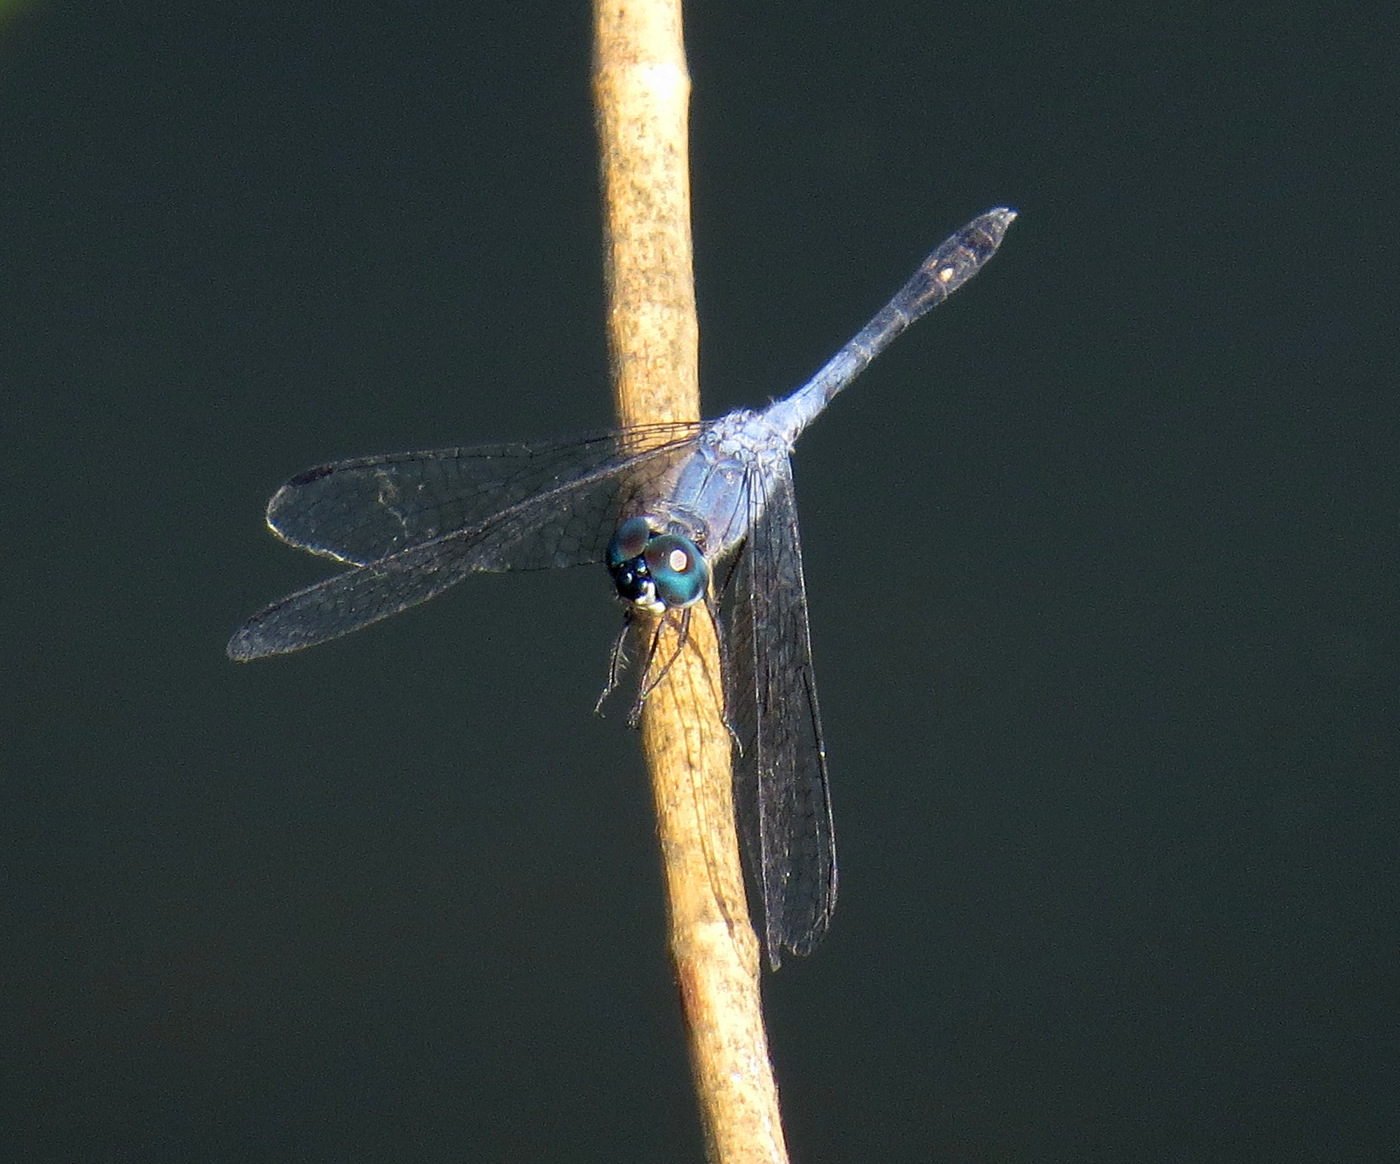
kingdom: Animalia
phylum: Arthropoda
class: Insecta
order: Odonata
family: Libellulidae
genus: Micrathyria
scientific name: Micrathyria aequalis
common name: Spot-tailed dasher
